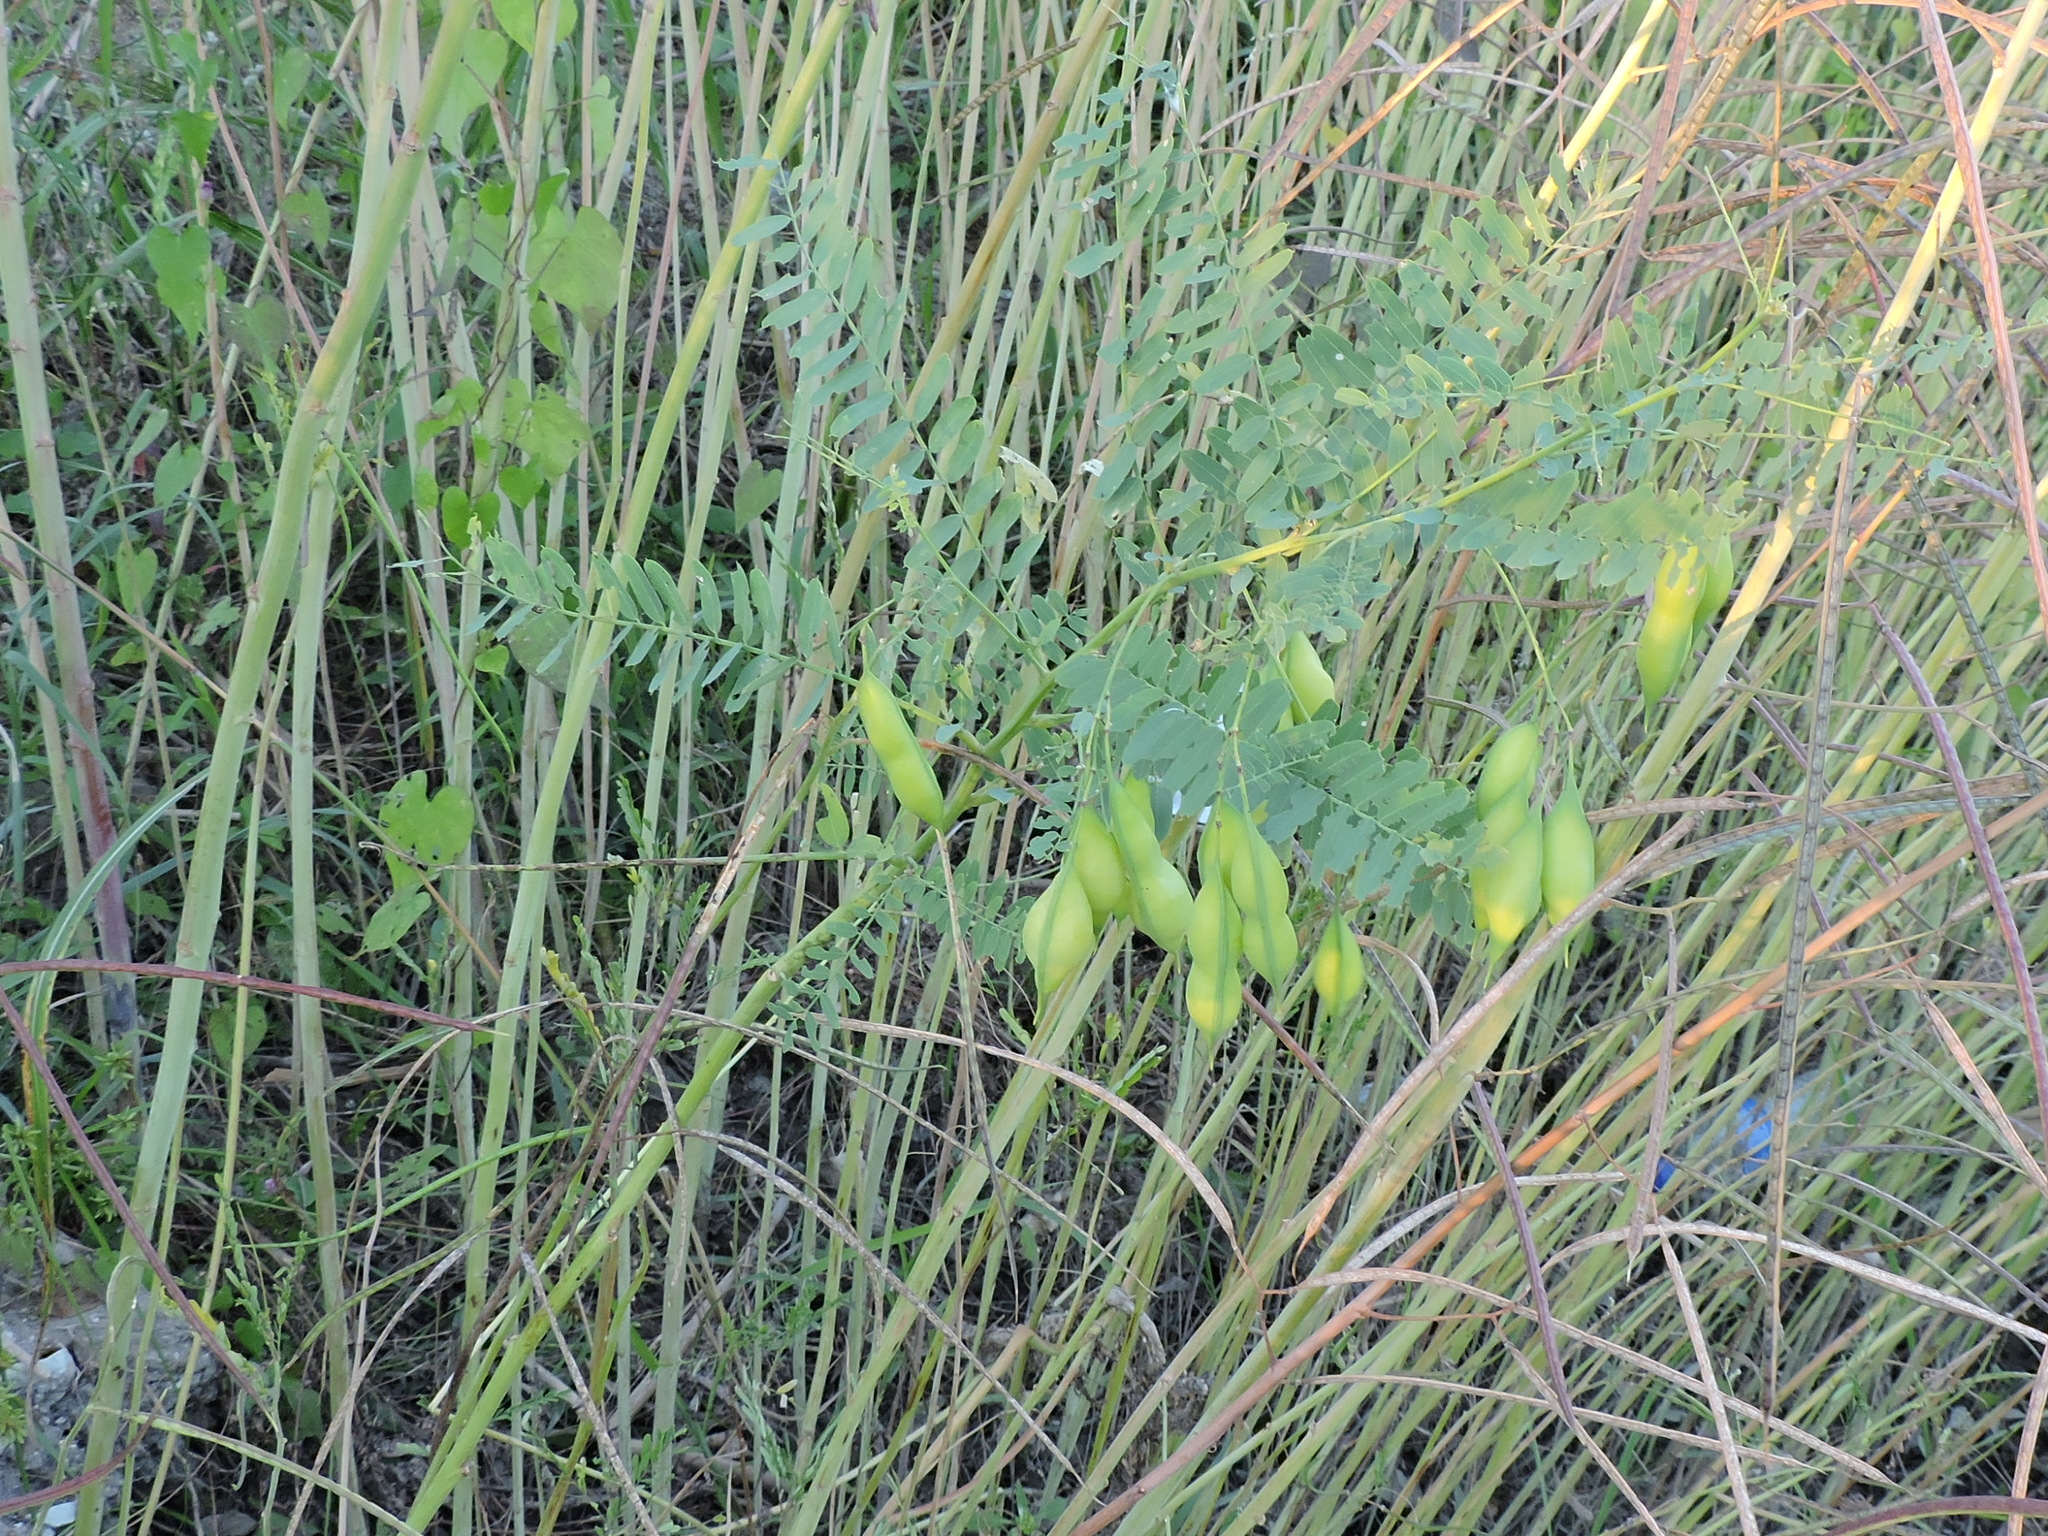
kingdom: Plantae
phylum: Tracheophyta
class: Magnoliopsida
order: Fabales
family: Fabaceae
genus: Sesbania
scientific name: Sesbania vesicaria
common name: Bagpod
